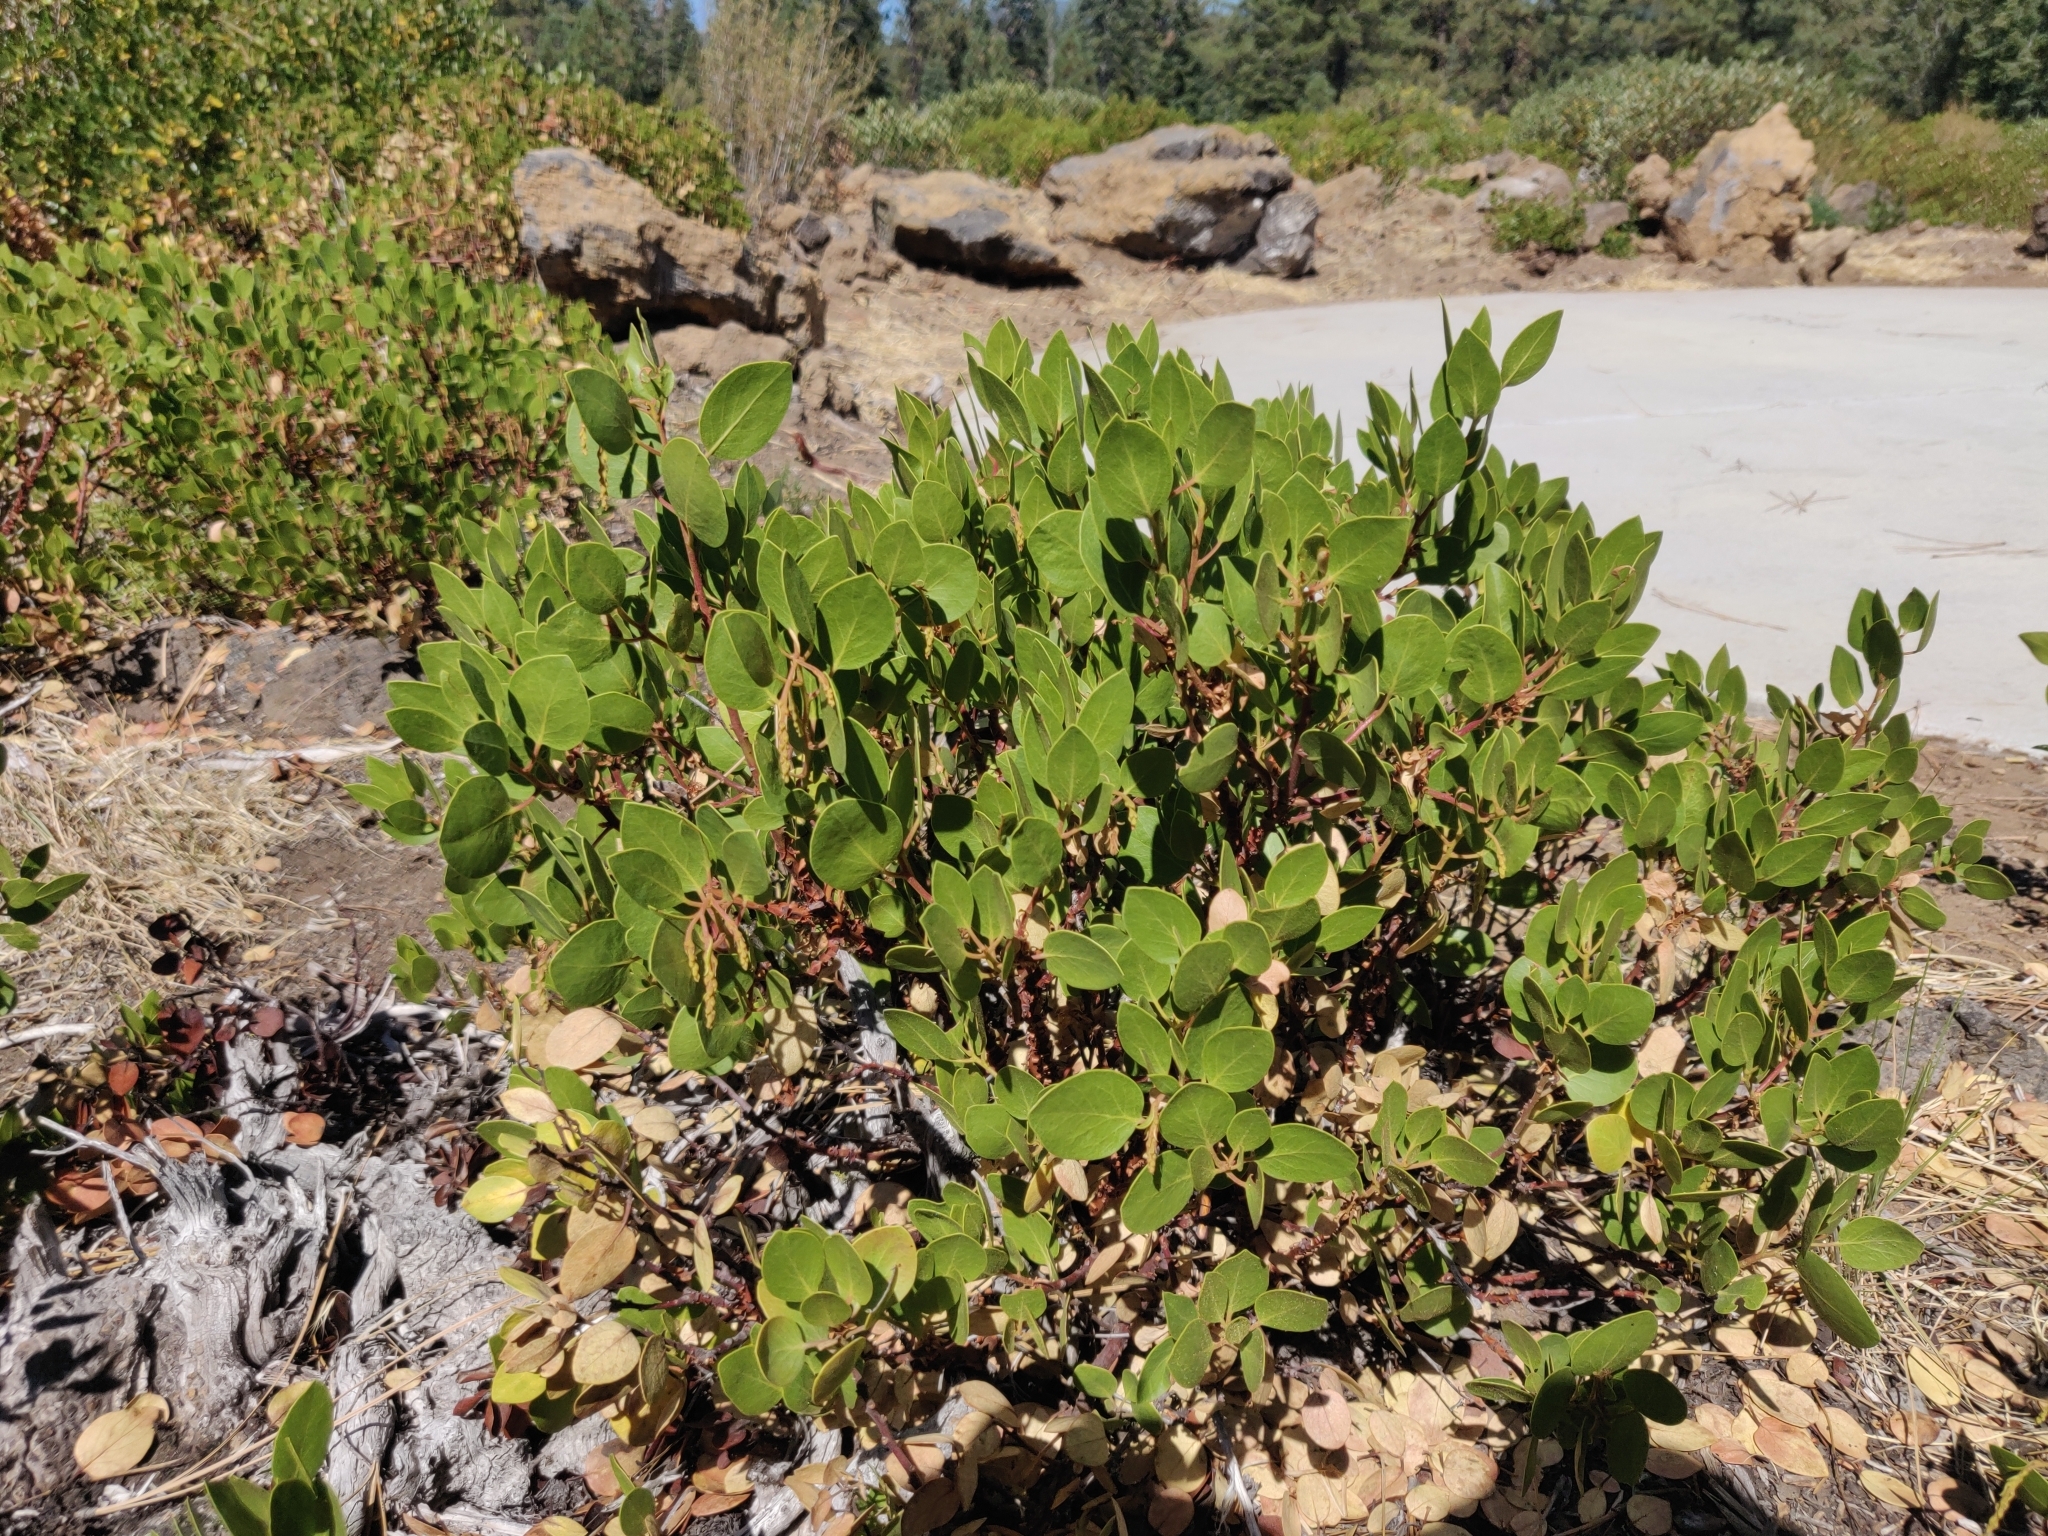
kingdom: Plantae
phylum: Tracheophyta
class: Magnoliopsida
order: Ericales
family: Ericaceae
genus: Arctostaphylos
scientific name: Arctostaphylos patula
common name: Green-leaf manzanita
